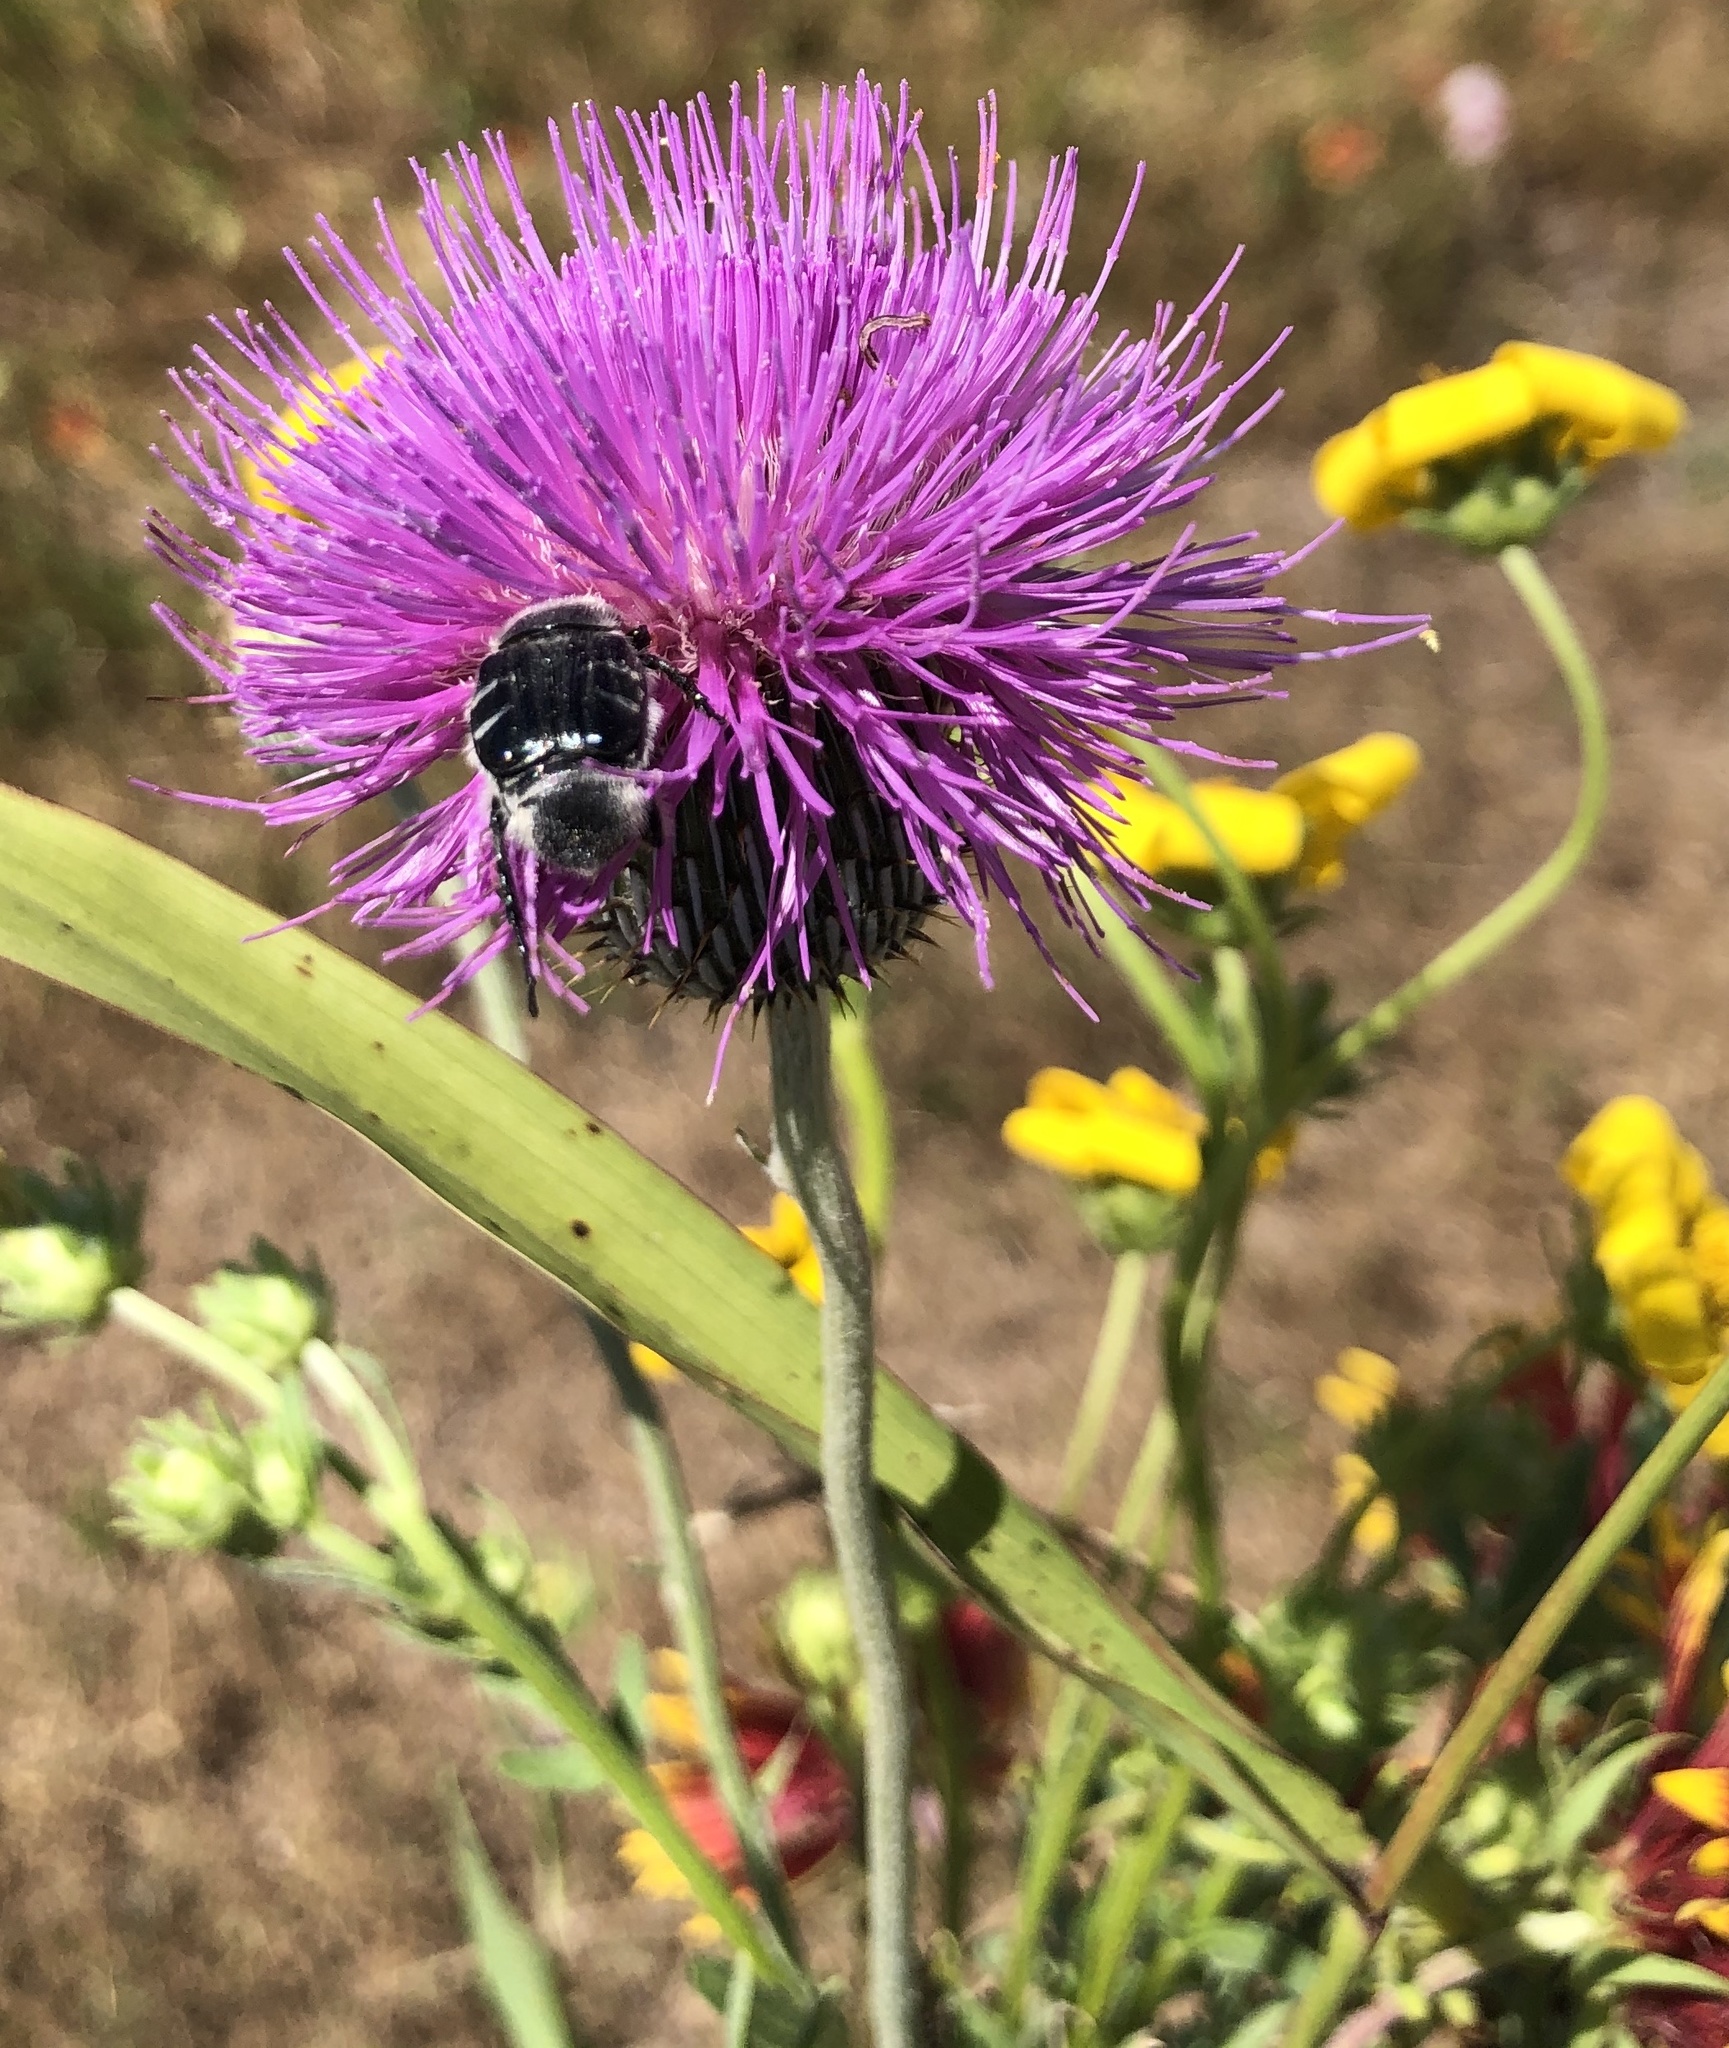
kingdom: Animalia
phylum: Arthropoda
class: Insecta
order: Coleoptera
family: Scarabaeidae
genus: Trichiotinus
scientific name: Trichiotinus texanus
